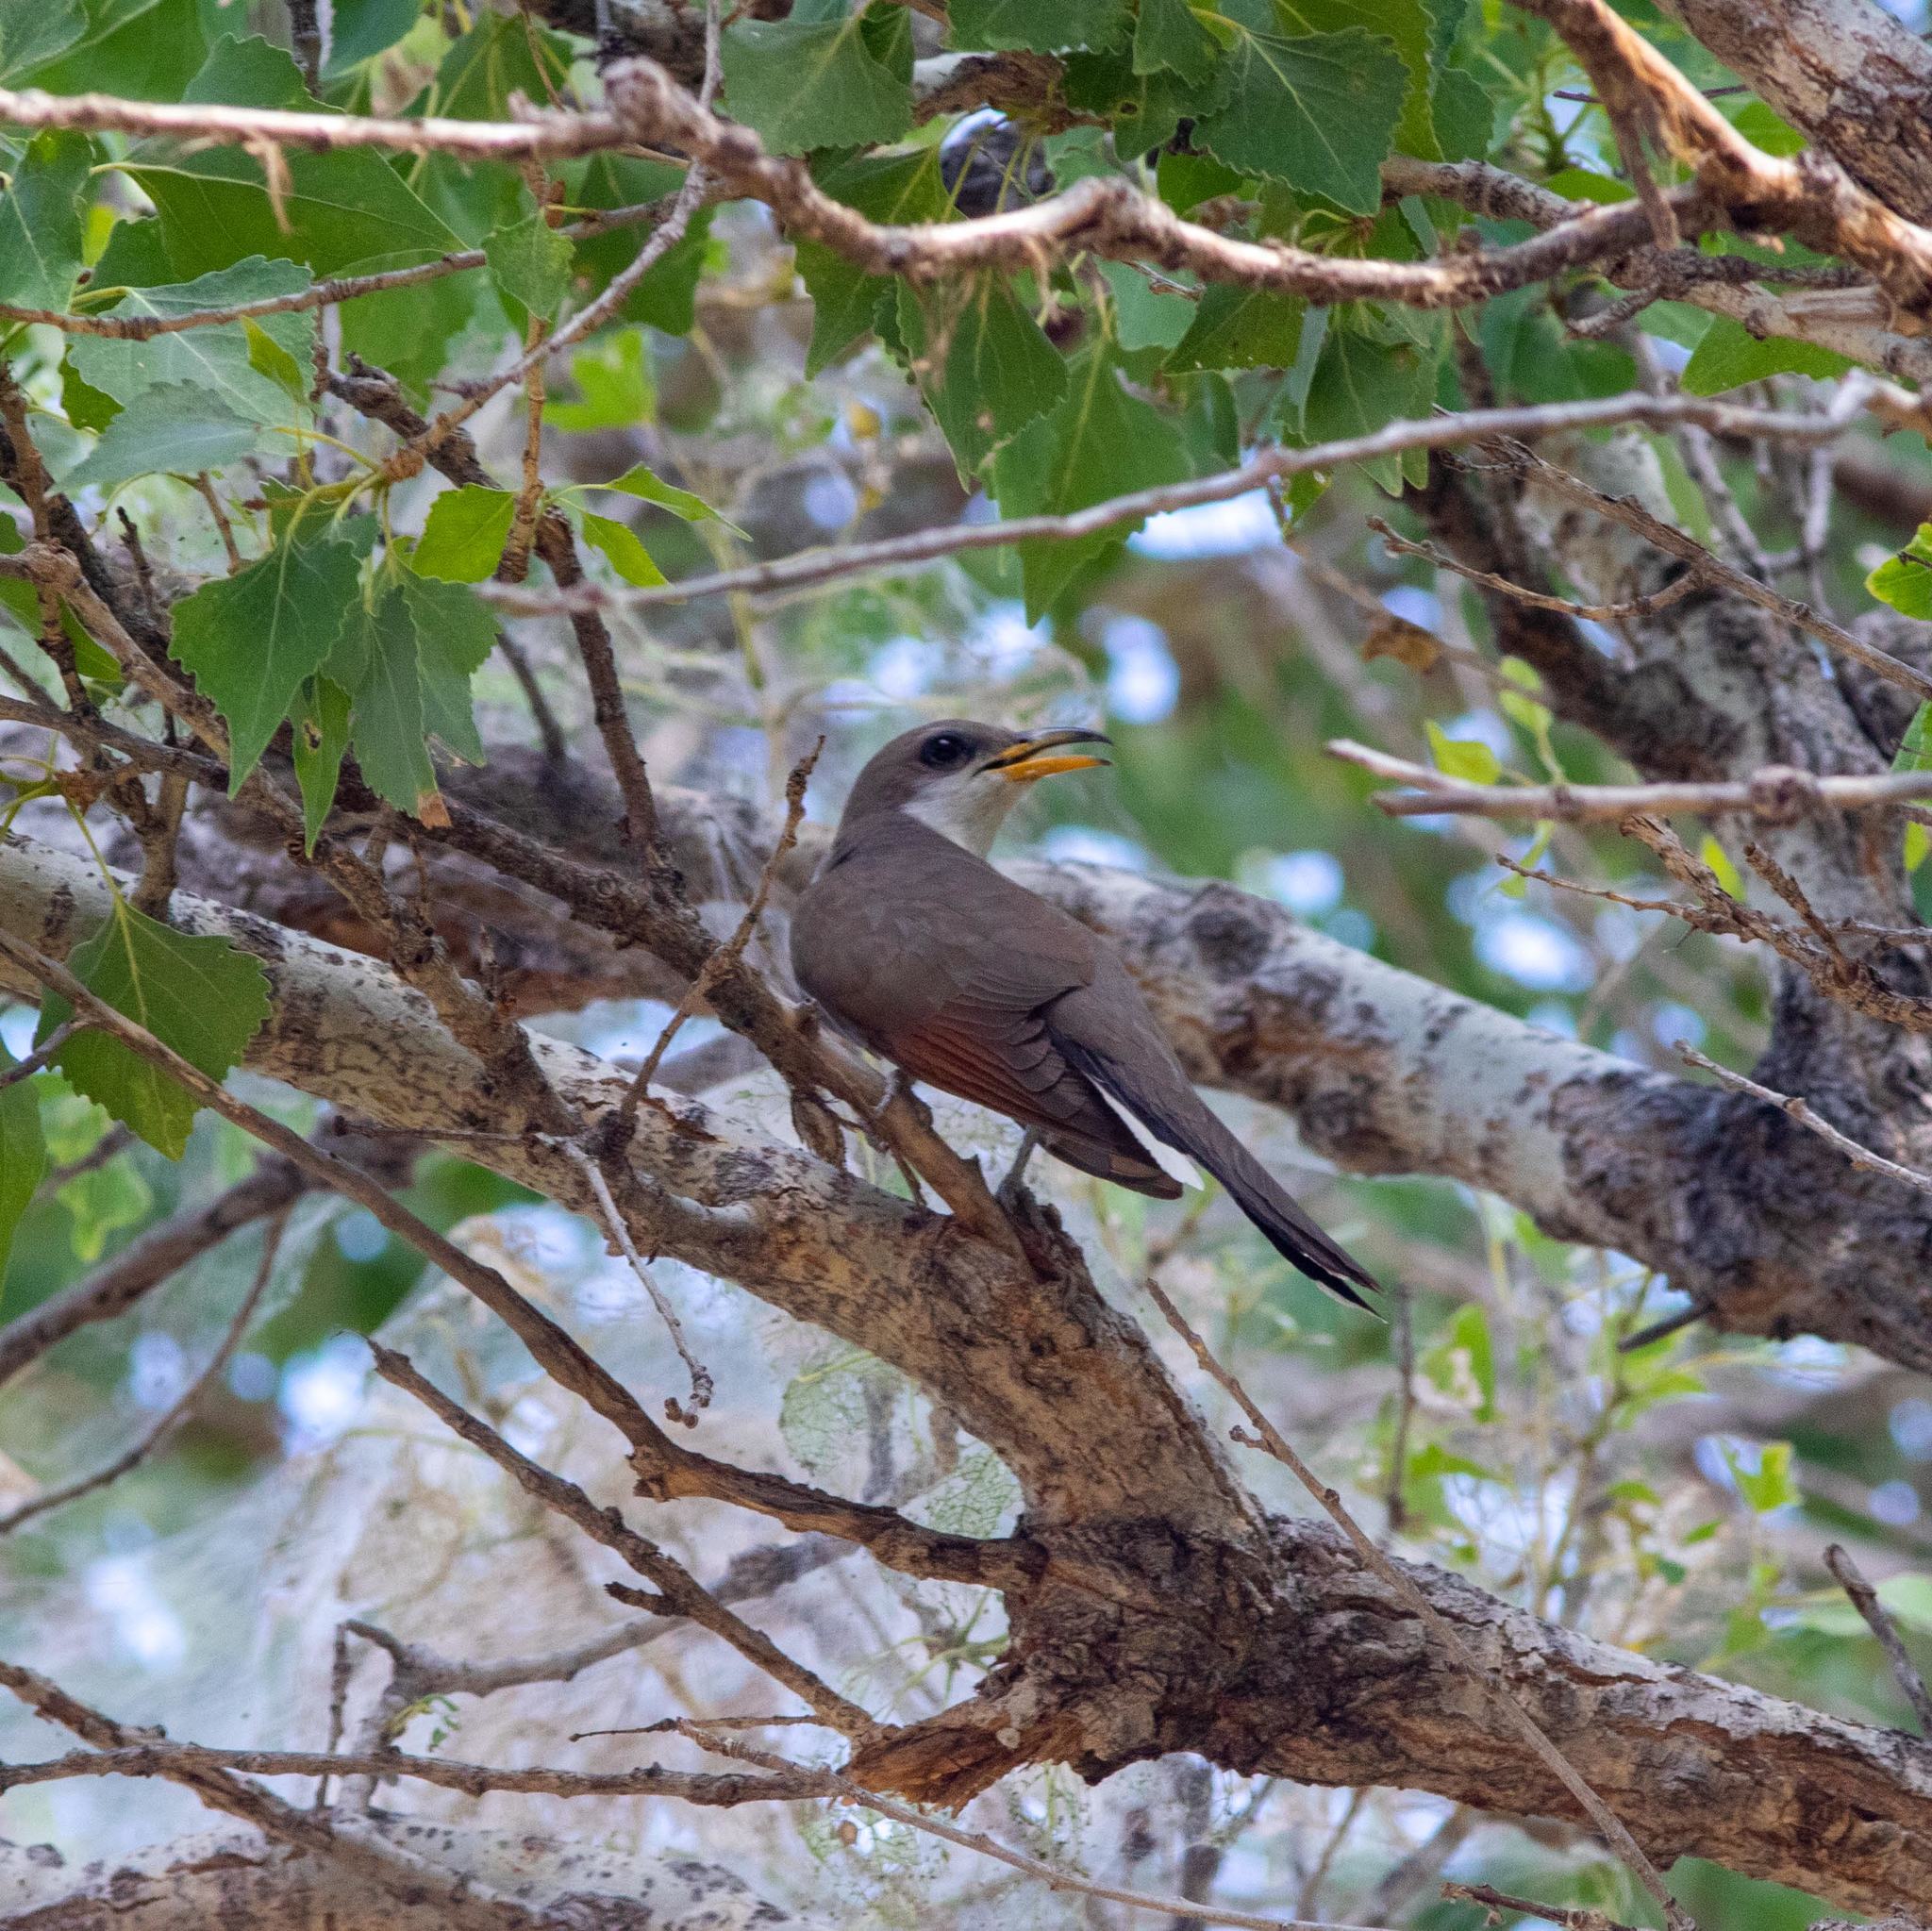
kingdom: Animalia
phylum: Chordata
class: Aves
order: Cuculiformes
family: Cuculidae
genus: Coccyzus
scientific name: Coccyzus americanus
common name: Yellow-billed cuckoo
